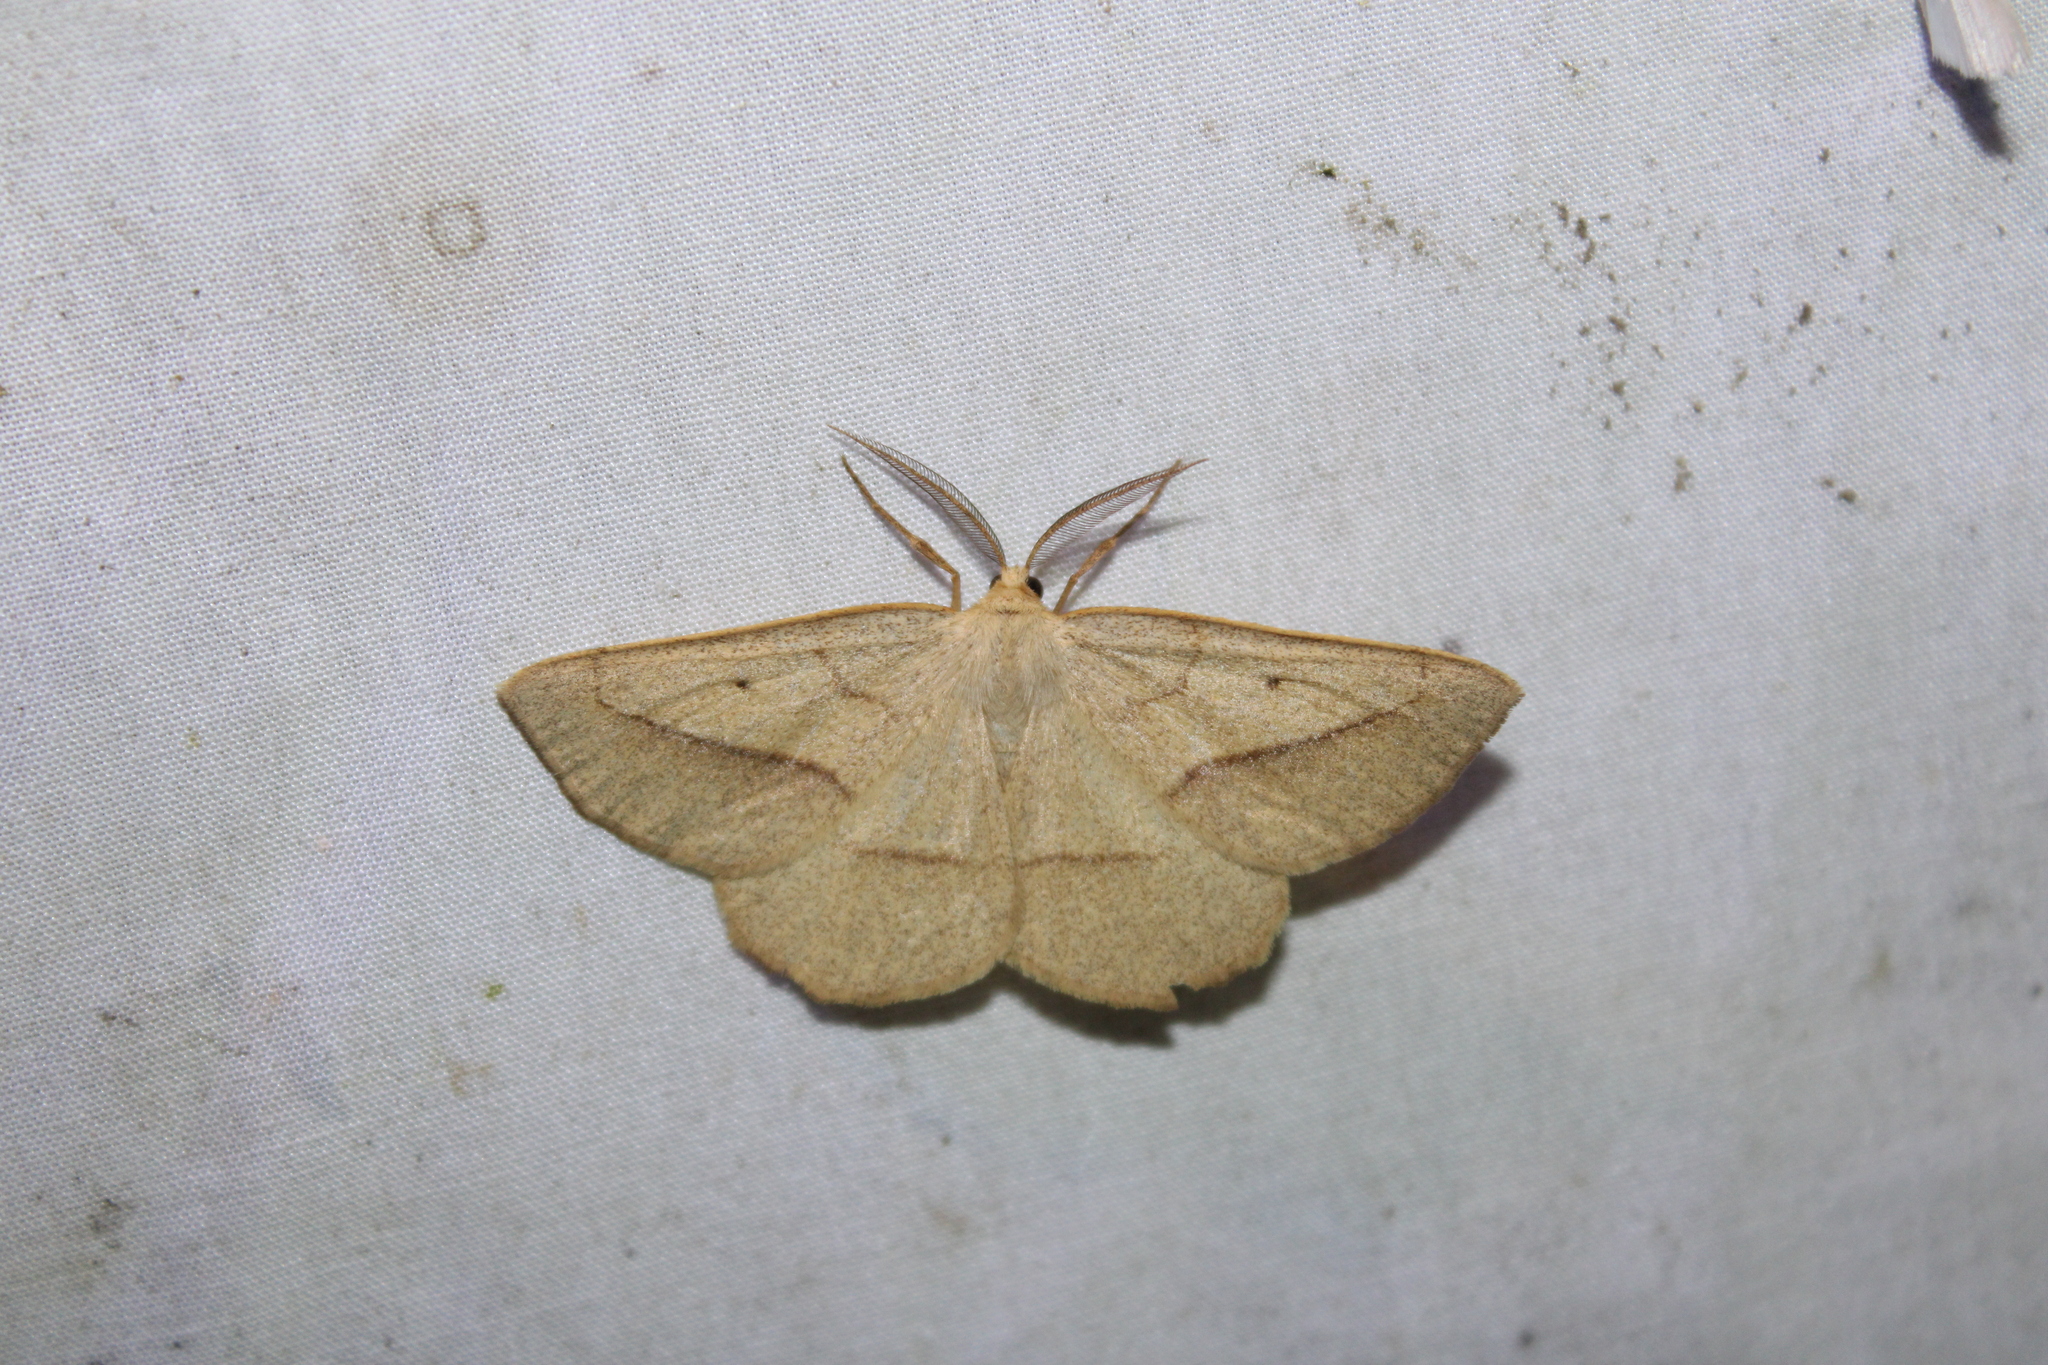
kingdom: Animalia
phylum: Arthropoda
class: Insecta
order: Lepidoptera
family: Geometridae
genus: Euchlaena
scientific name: Euchlaena irraria
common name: Least-marked euchlaena
